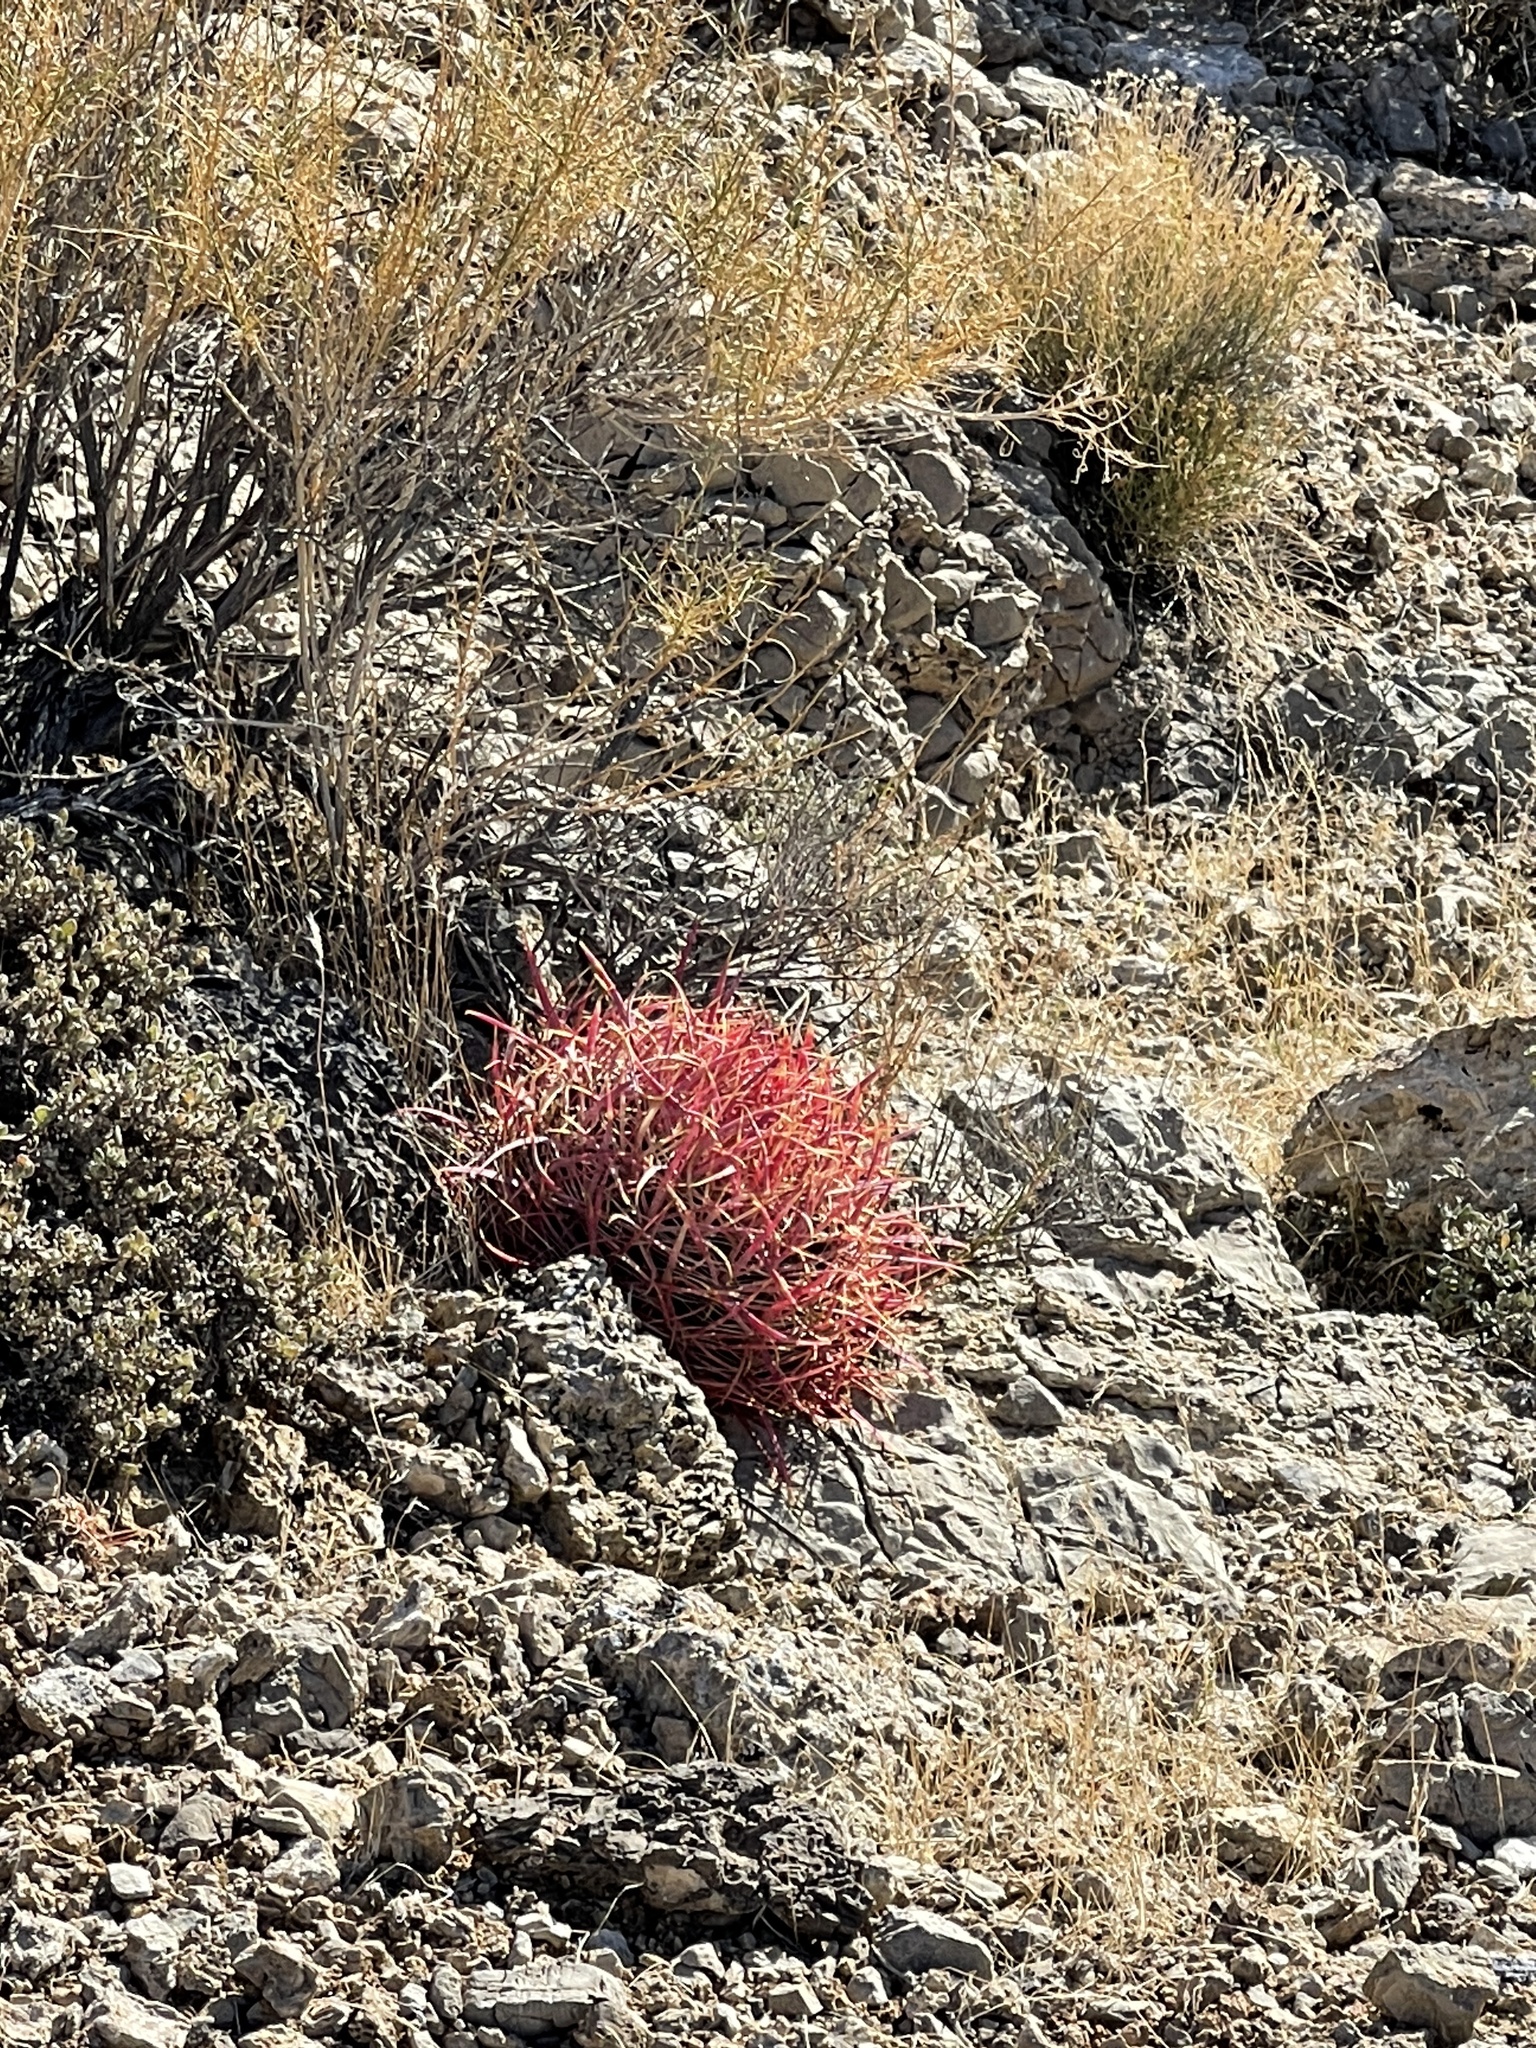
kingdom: Plantae
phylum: Tracheophyta
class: Magnoliopsida
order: Caryophyllales
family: Cactaceae
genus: Ferocactus
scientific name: Ferocactus cylindraceus
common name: California barrel cactus
